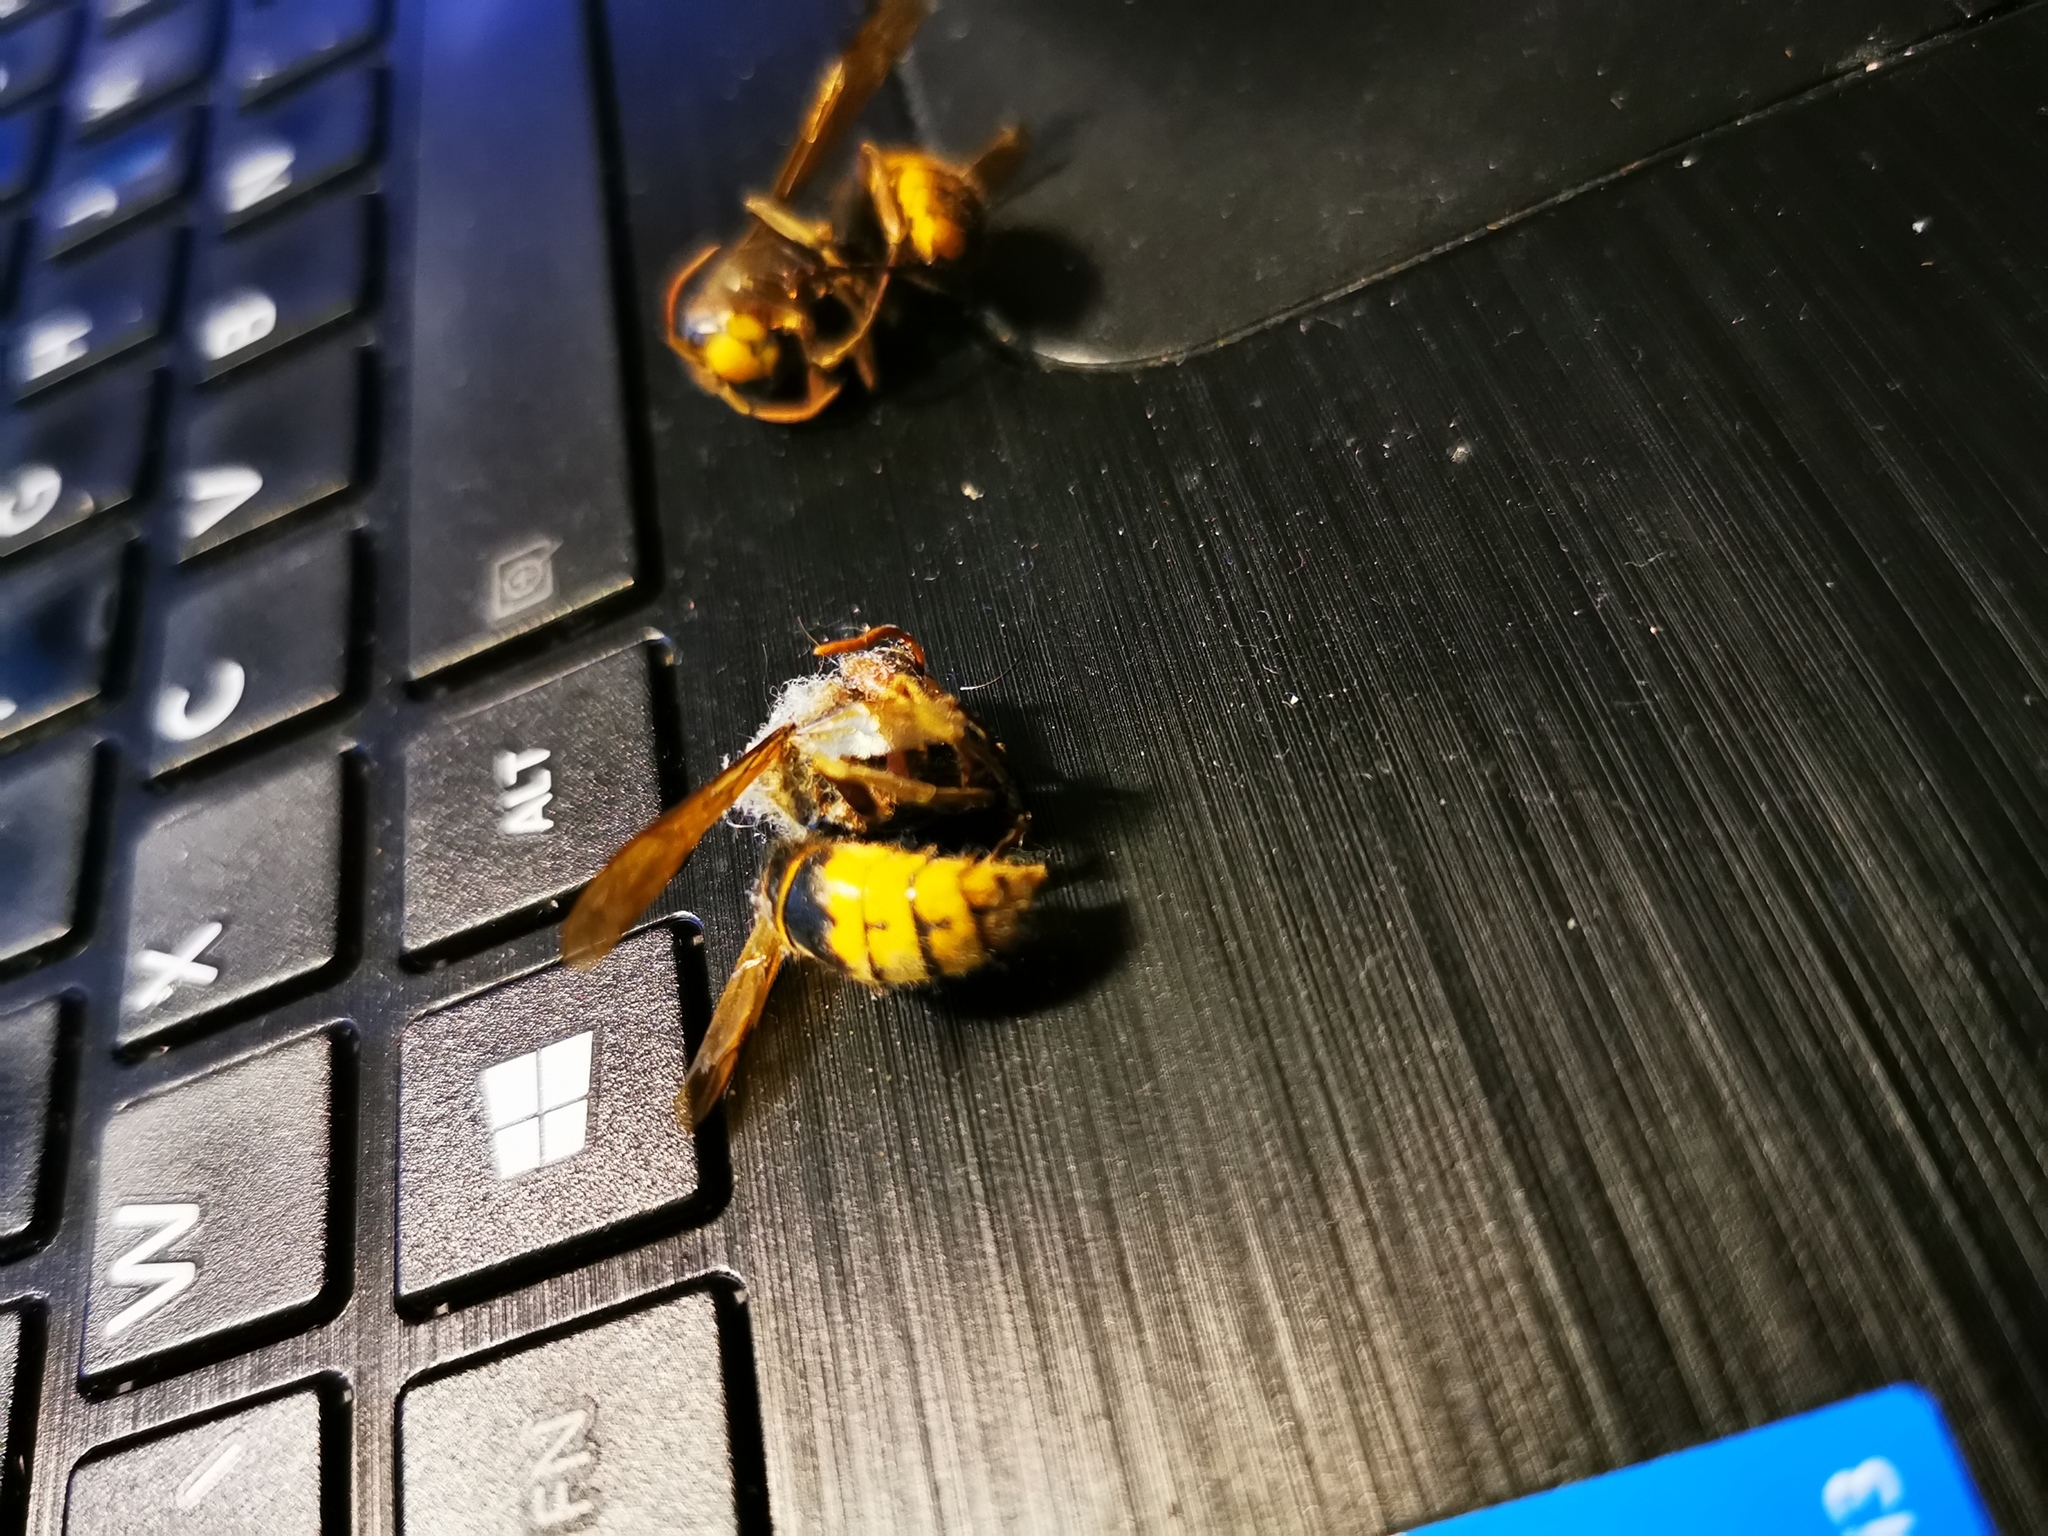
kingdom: Animalia
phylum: Arthropoda
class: Insecta
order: Hymenoptera
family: Vespidae
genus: Vespa
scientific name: Vespa crabro
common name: Hornet
